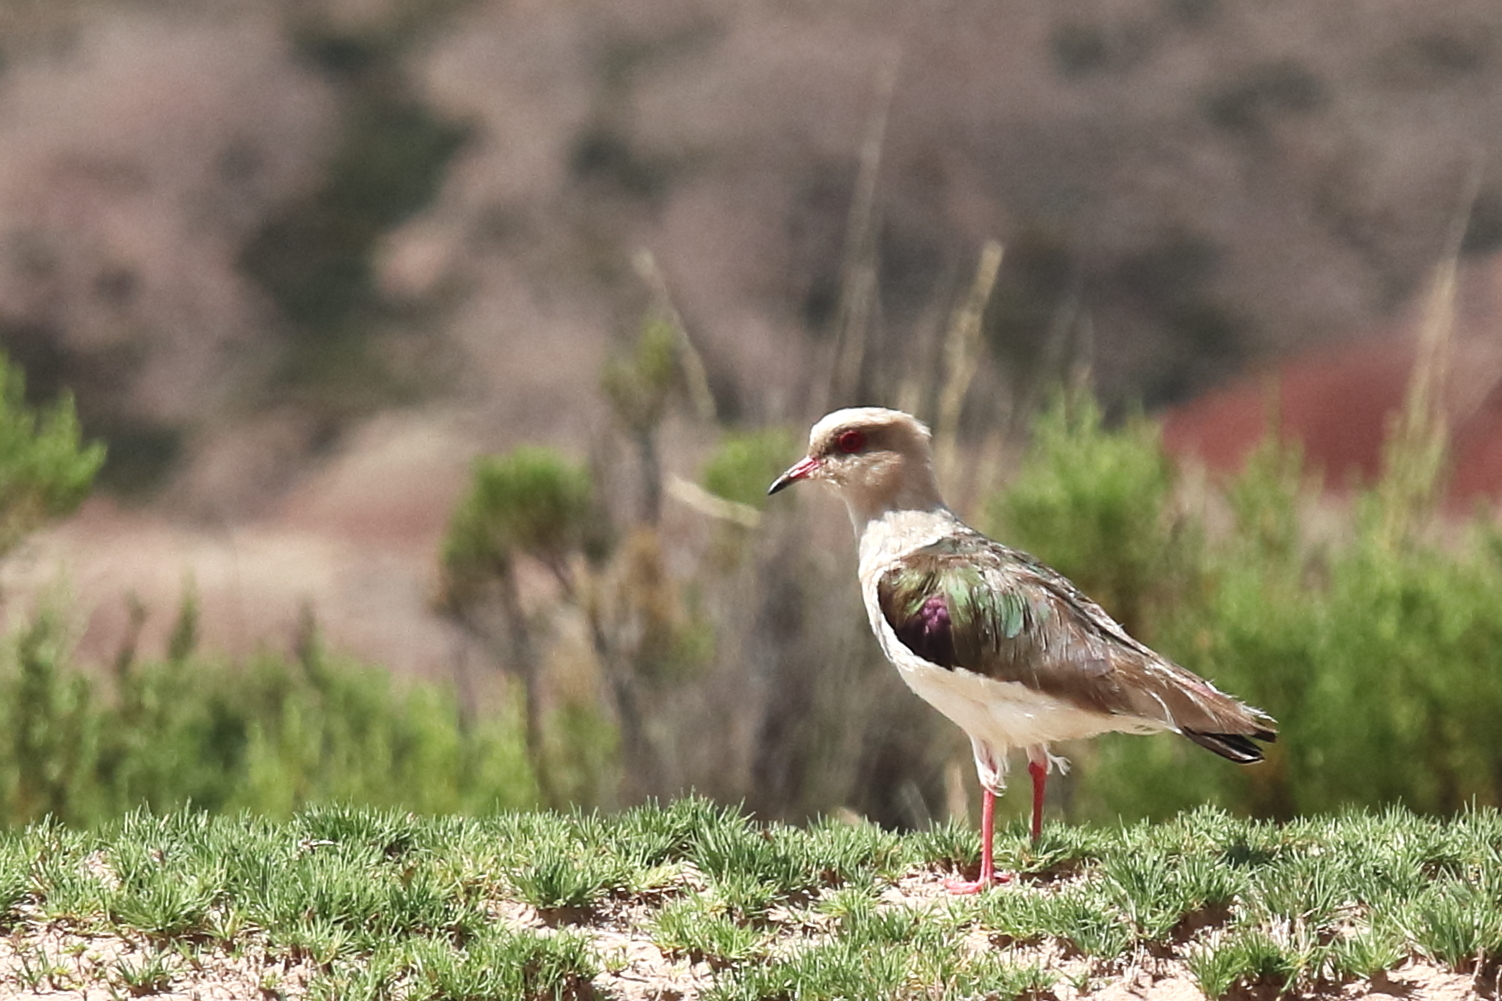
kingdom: Animalia
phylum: Chordata
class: Aves
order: Charadriiformes
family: Charadriidae
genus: Vanellus
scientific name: Vanellus resplendens
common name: Andean lapwing
